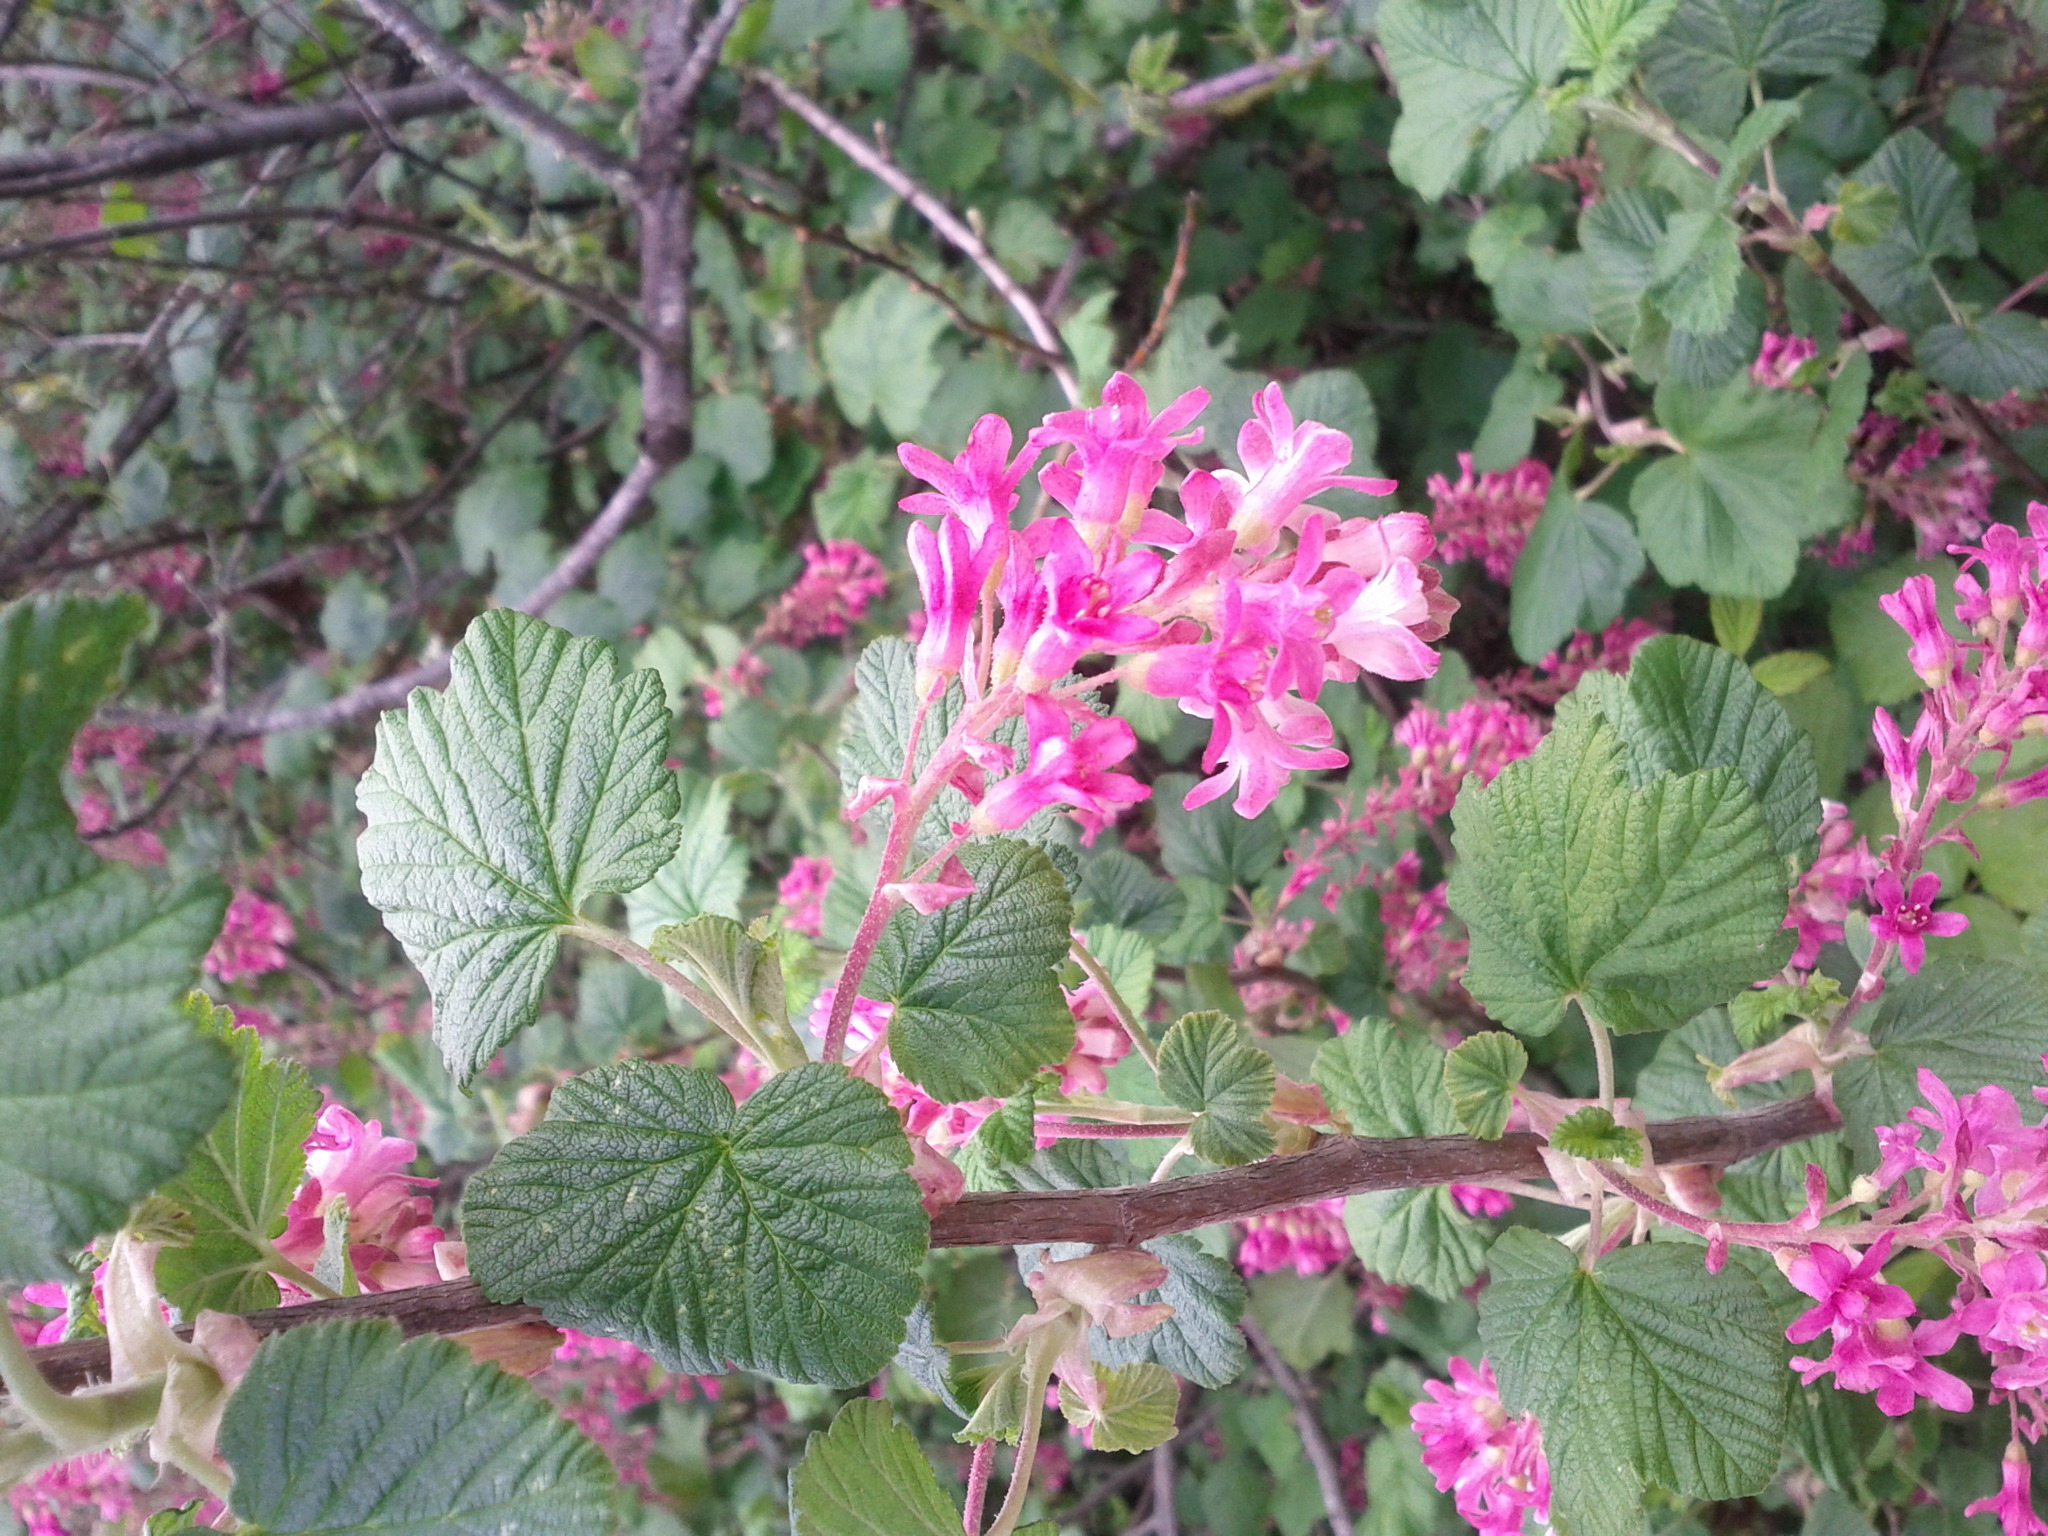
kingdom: Plantae
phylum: Tracheophyta
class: Magnoliopsida
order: Saxifragales
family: Grossulariaceae
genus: Ribes
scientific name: Ribes sanguineum
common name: Flowering currant
